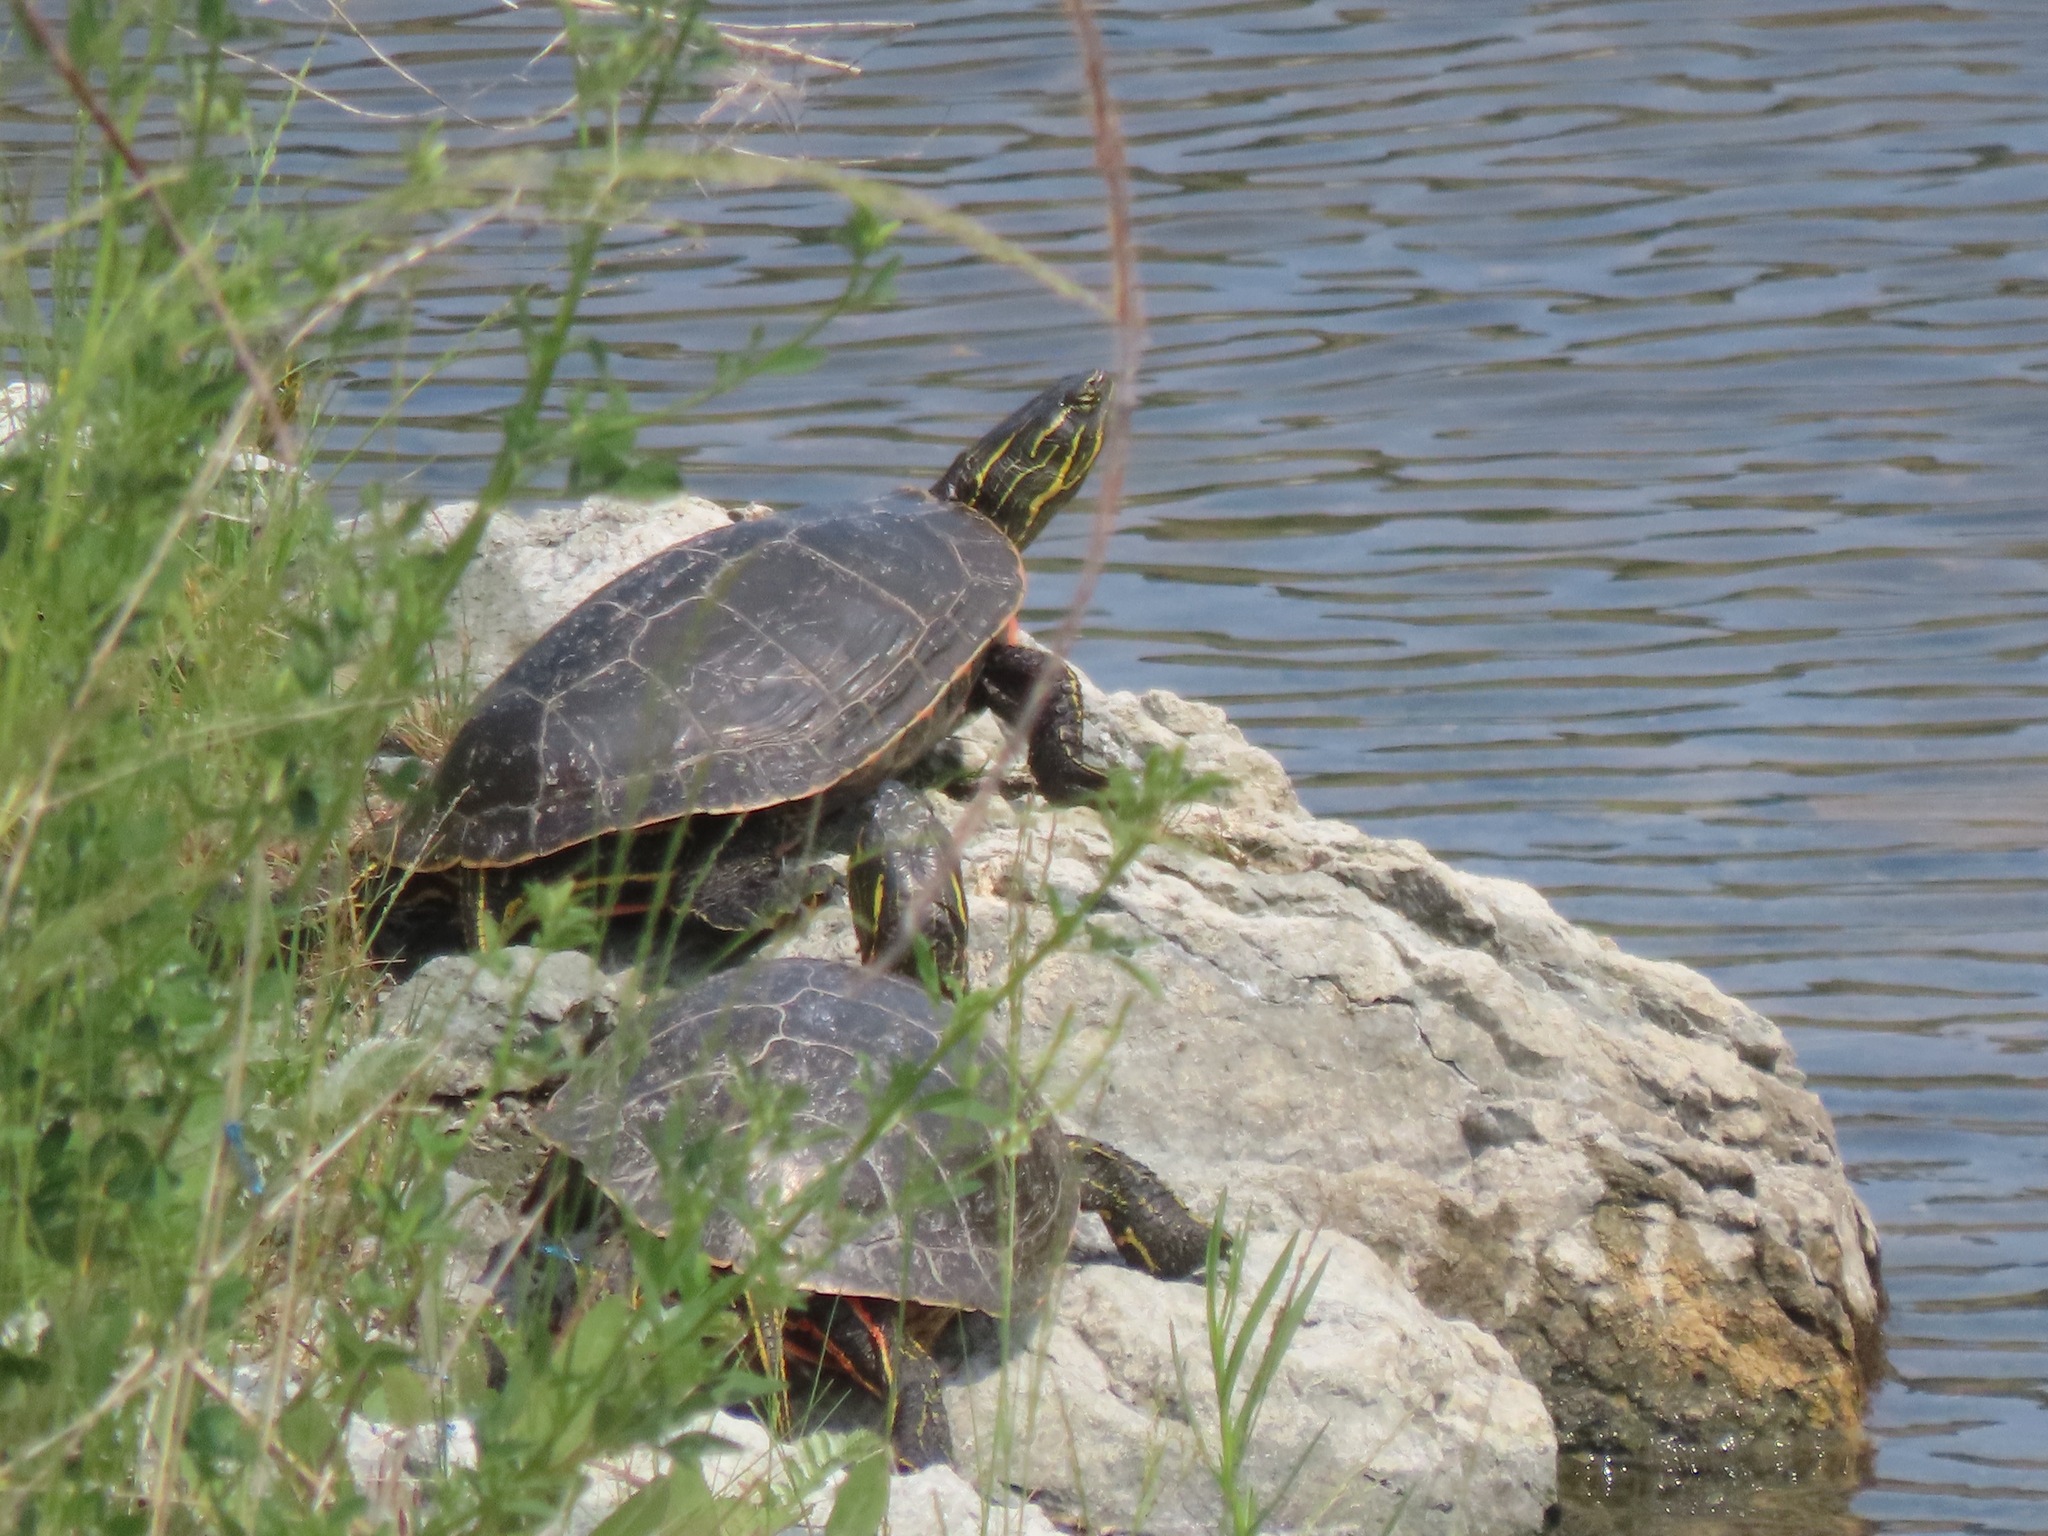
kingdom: Animalia
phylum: Chordata
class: Testudines
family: Emydidae
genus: Chrysemys
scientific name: Chrysemys picta
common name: Painted turtle
